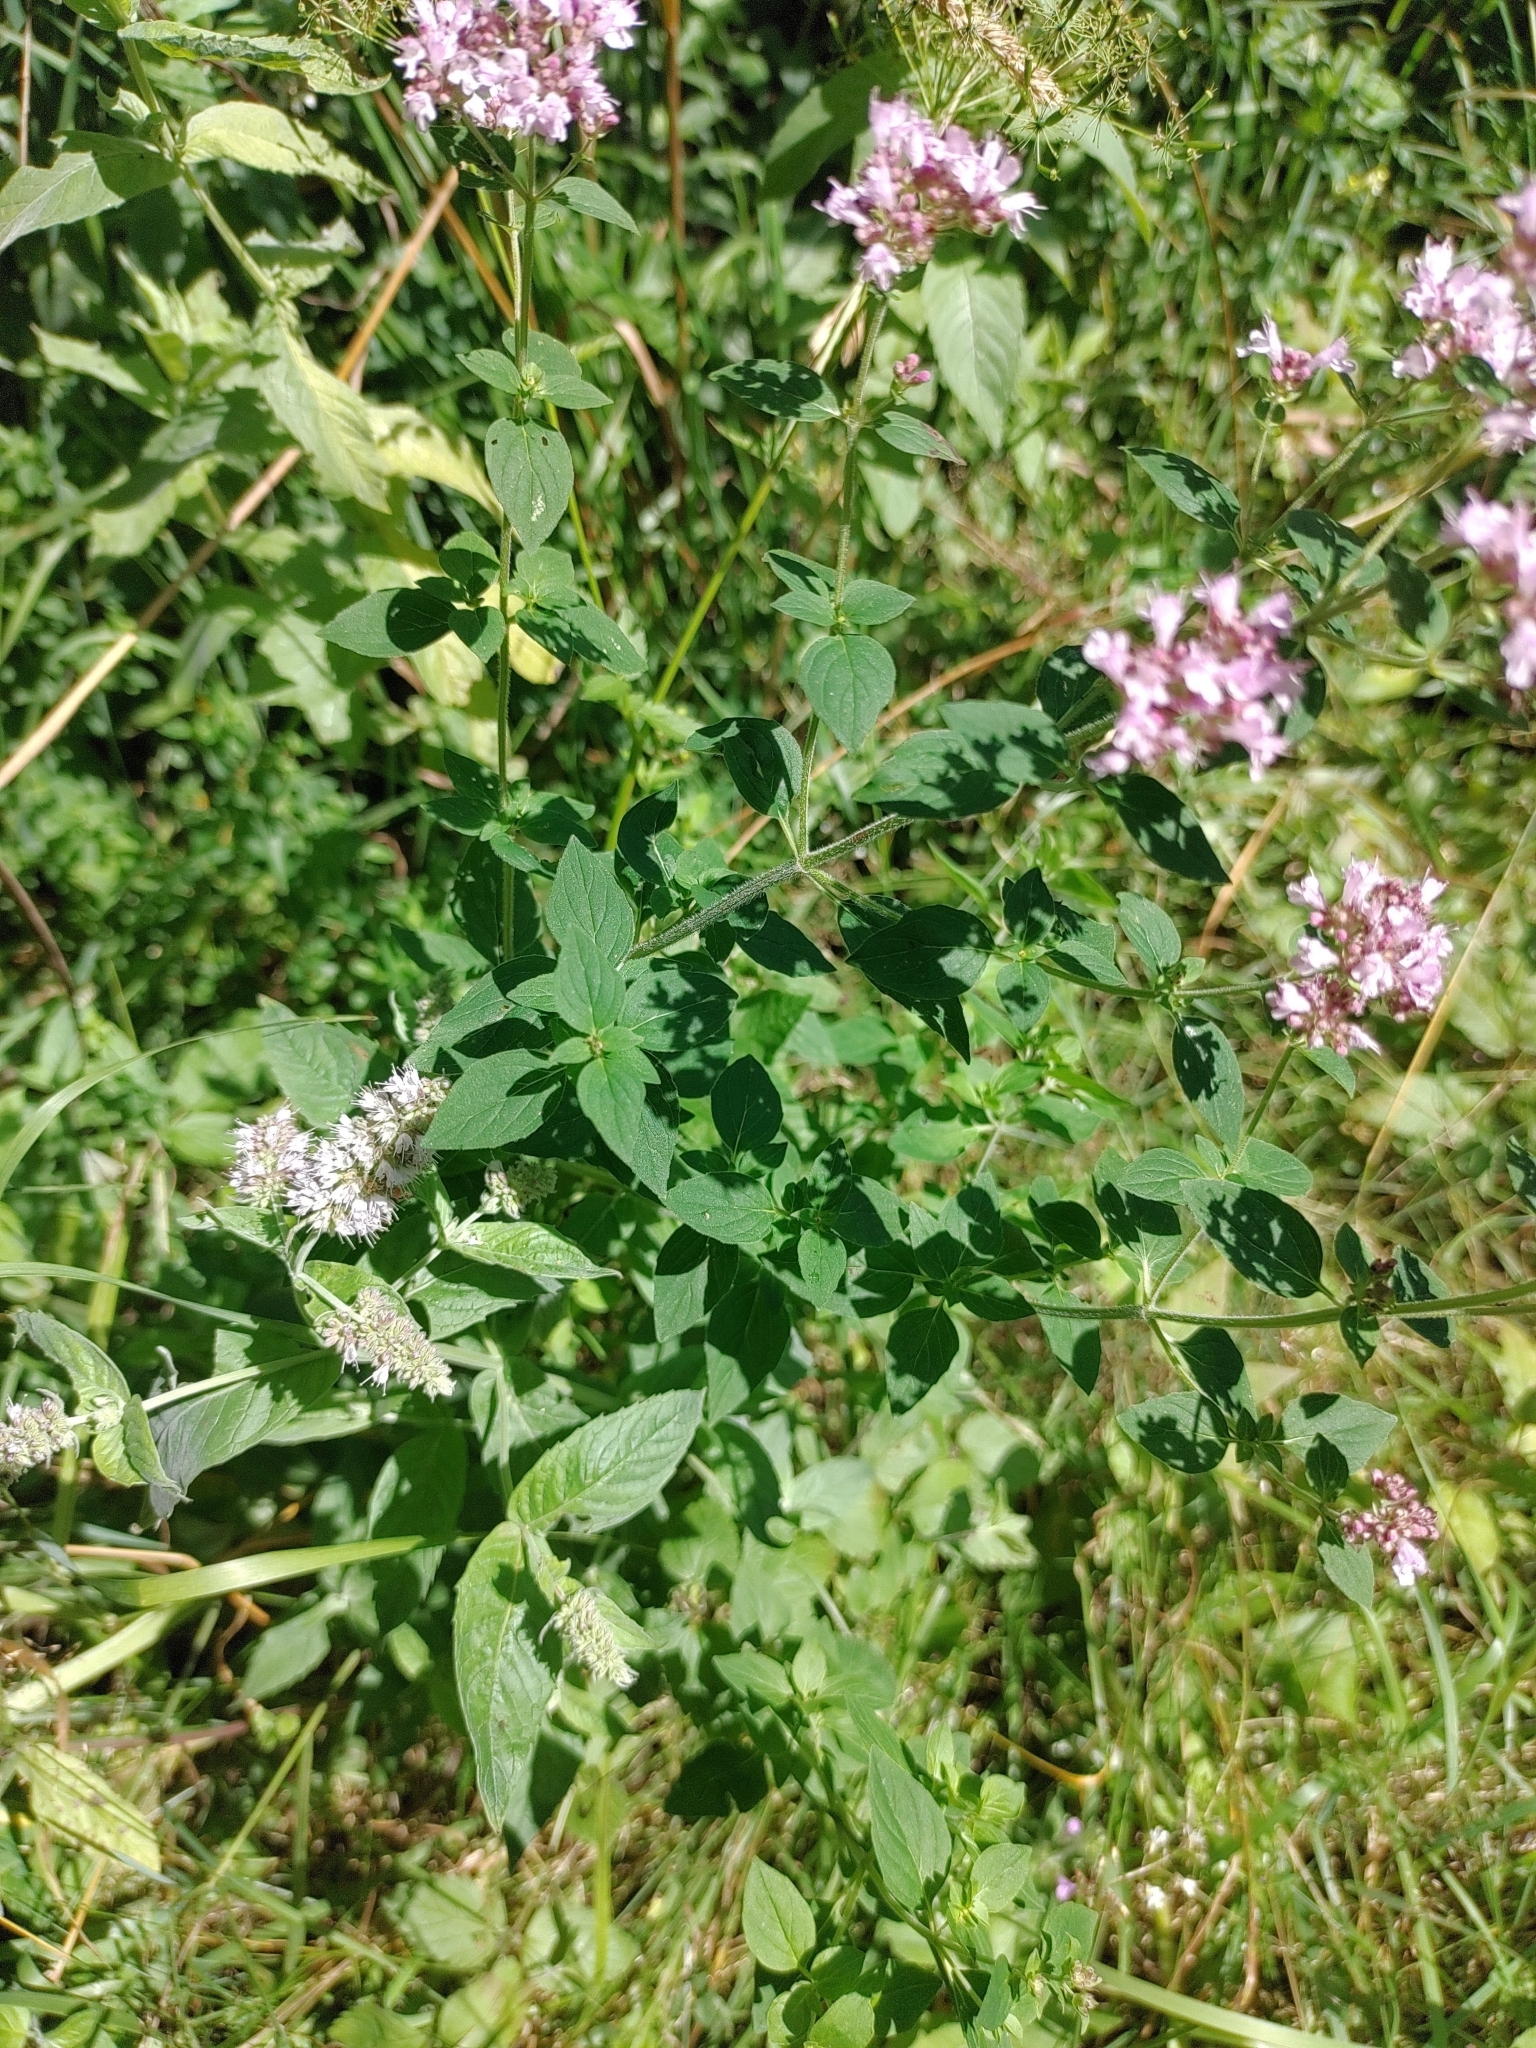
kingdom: Plantae
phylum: Tracheophyta
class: Magnoliopsida
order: Lamiales
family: Lamiaceae
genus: Origanum
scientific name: Origanum vulgare
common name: Wild marjoram
